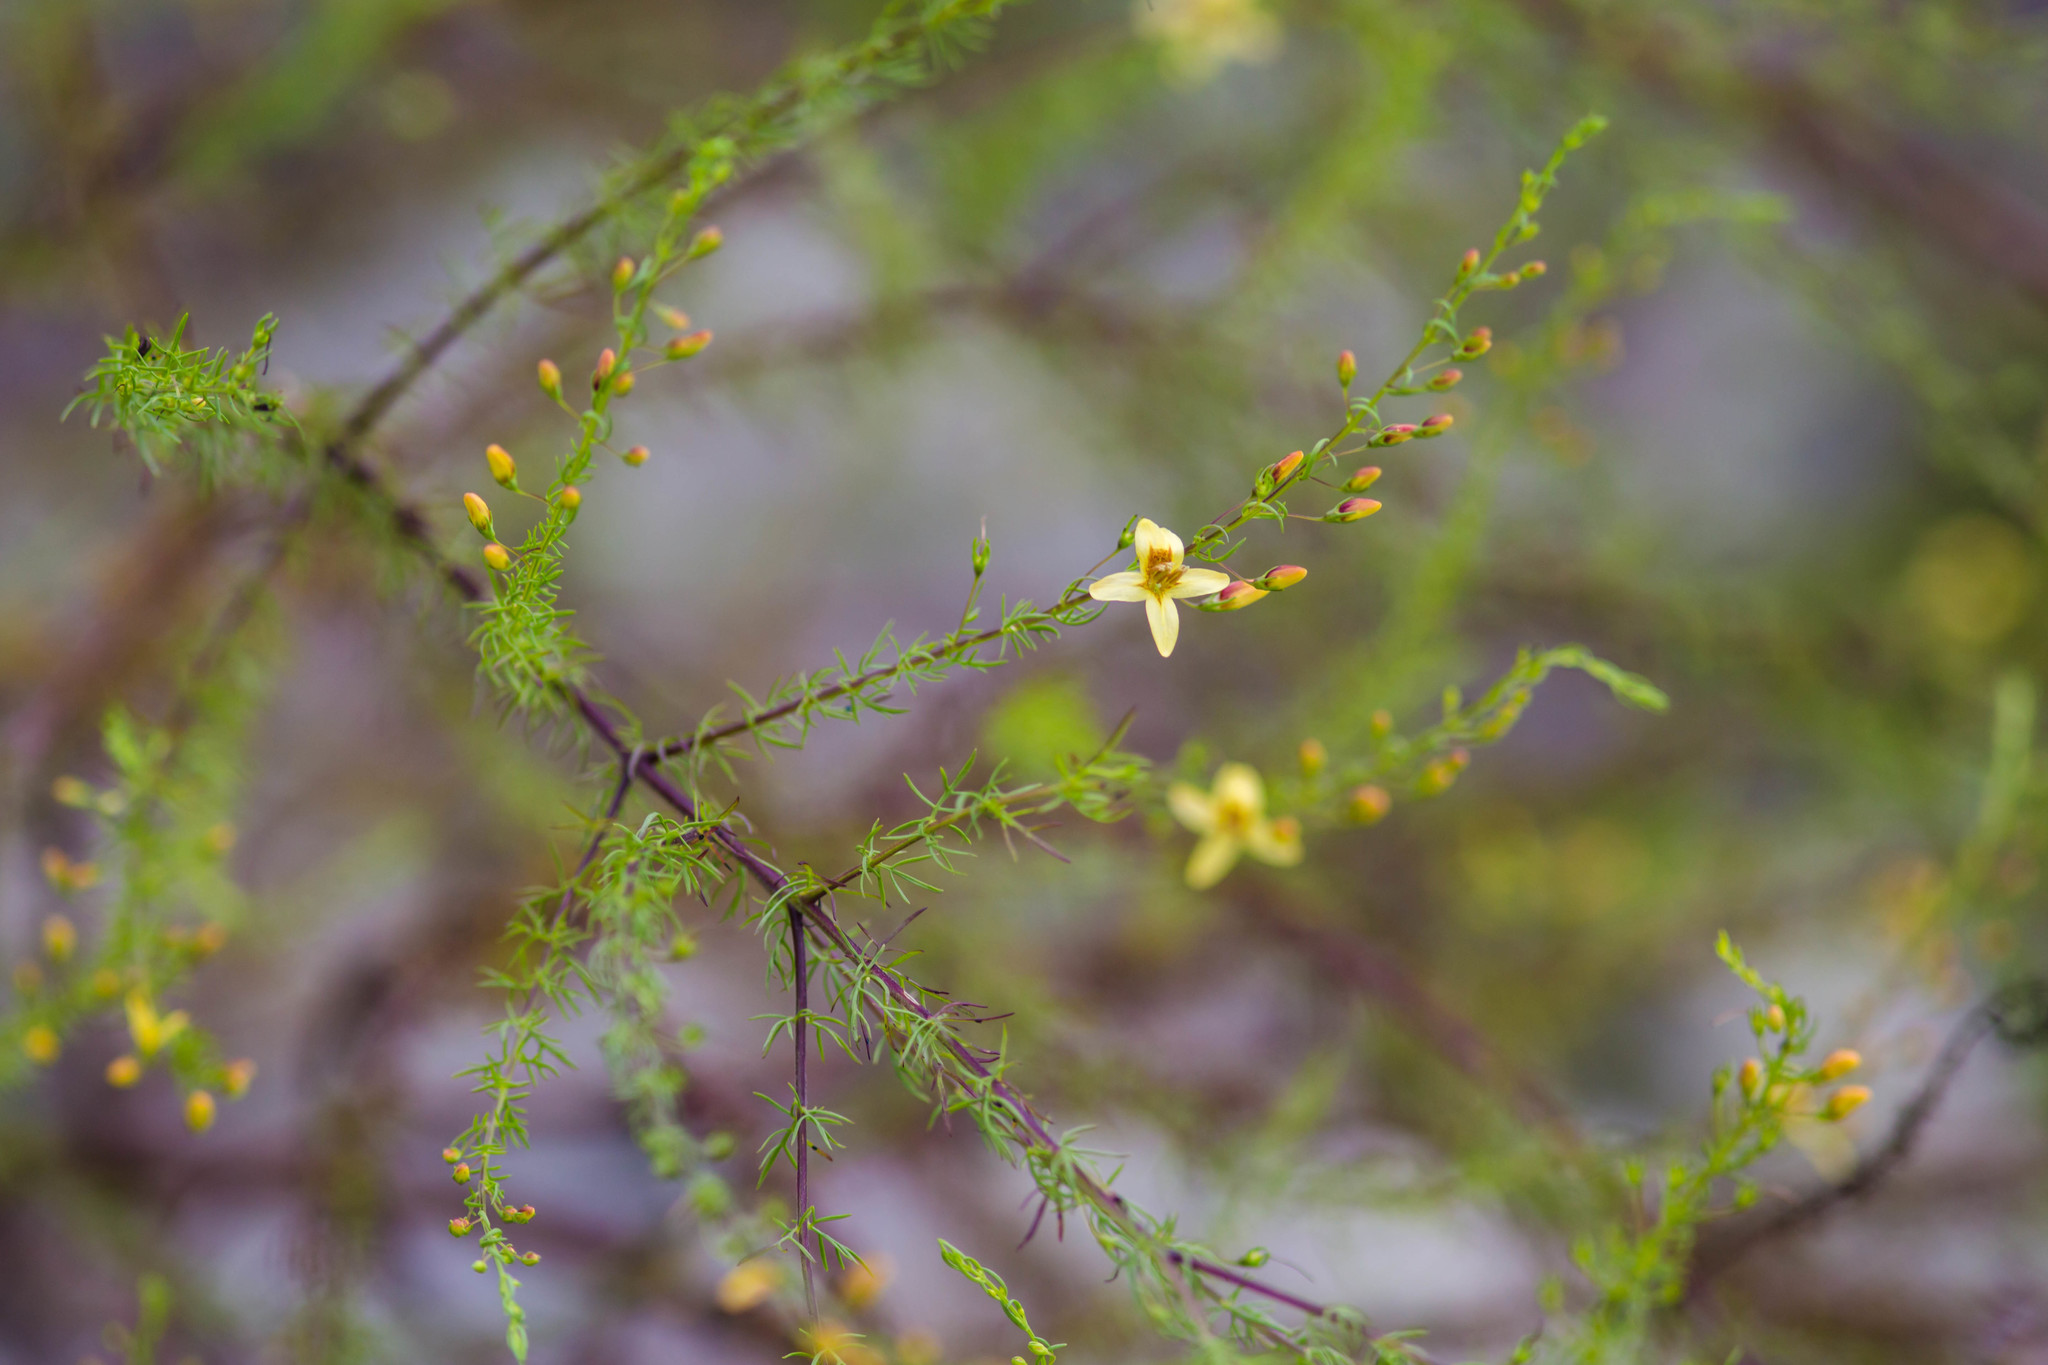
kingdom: Plantae
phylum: Tracheophyta
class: Magnoliopsida
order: Lamiales
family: Orobanchaceae
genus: Seymeria
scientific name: Seymeria cassioides
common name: Yaupon black-senna
